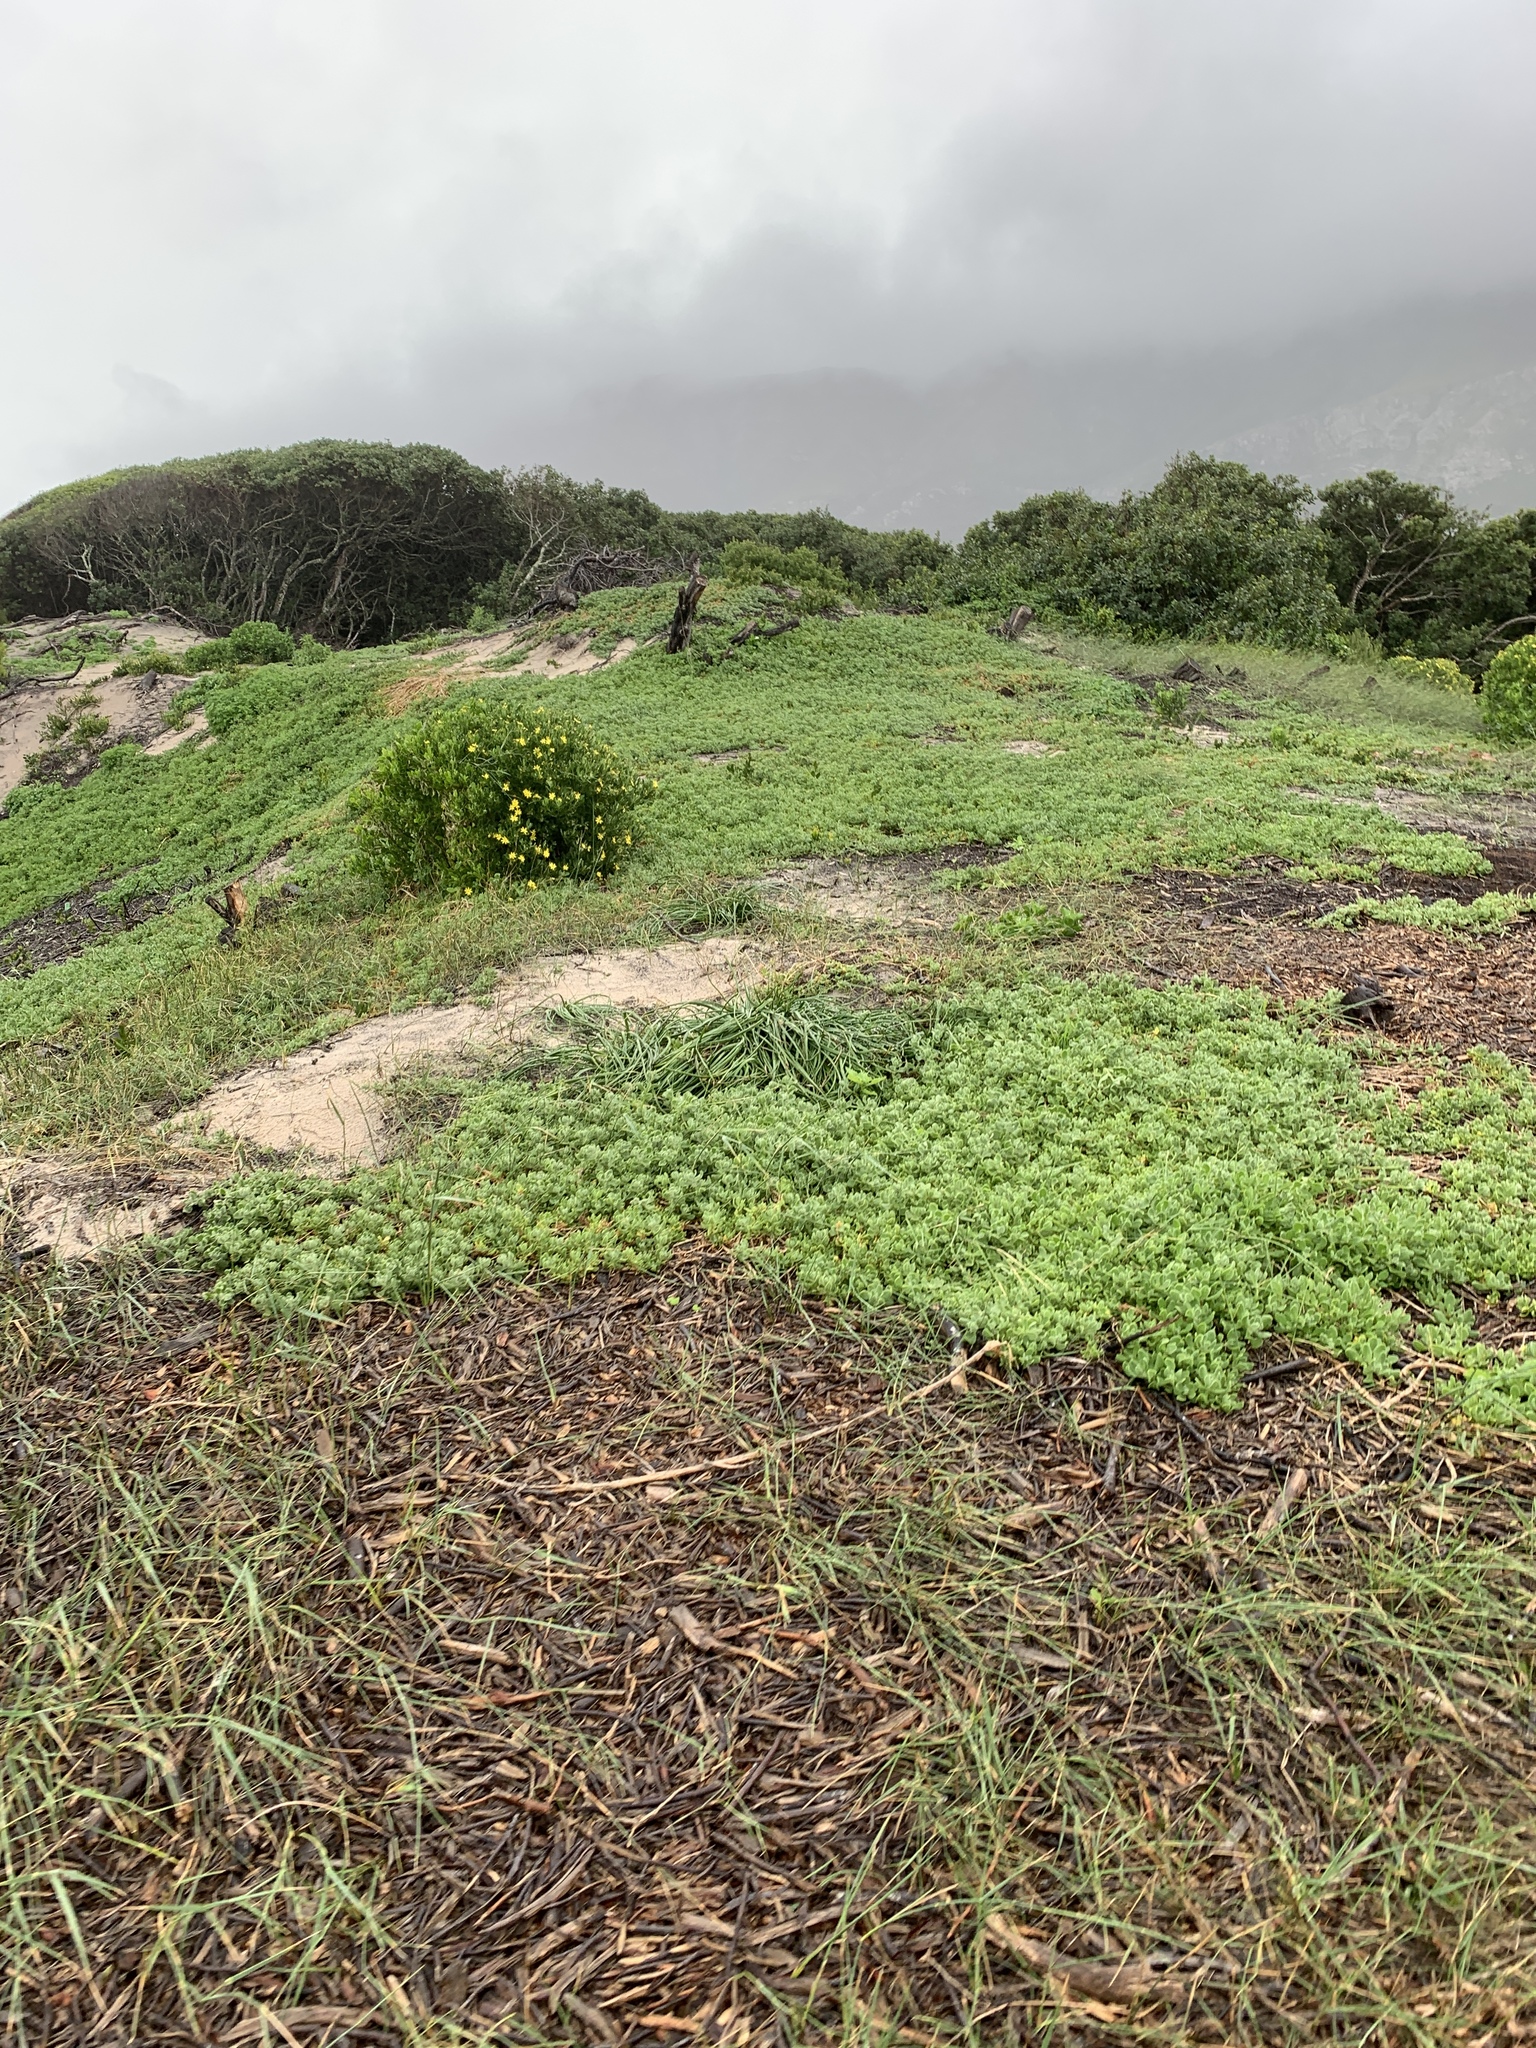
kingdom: Plantae
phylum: Tracheophyta
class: Magnoliopsida
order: Caryophyllales
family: Aizoaceae
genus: Tetragonia
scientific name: Tetragonia decumbens
